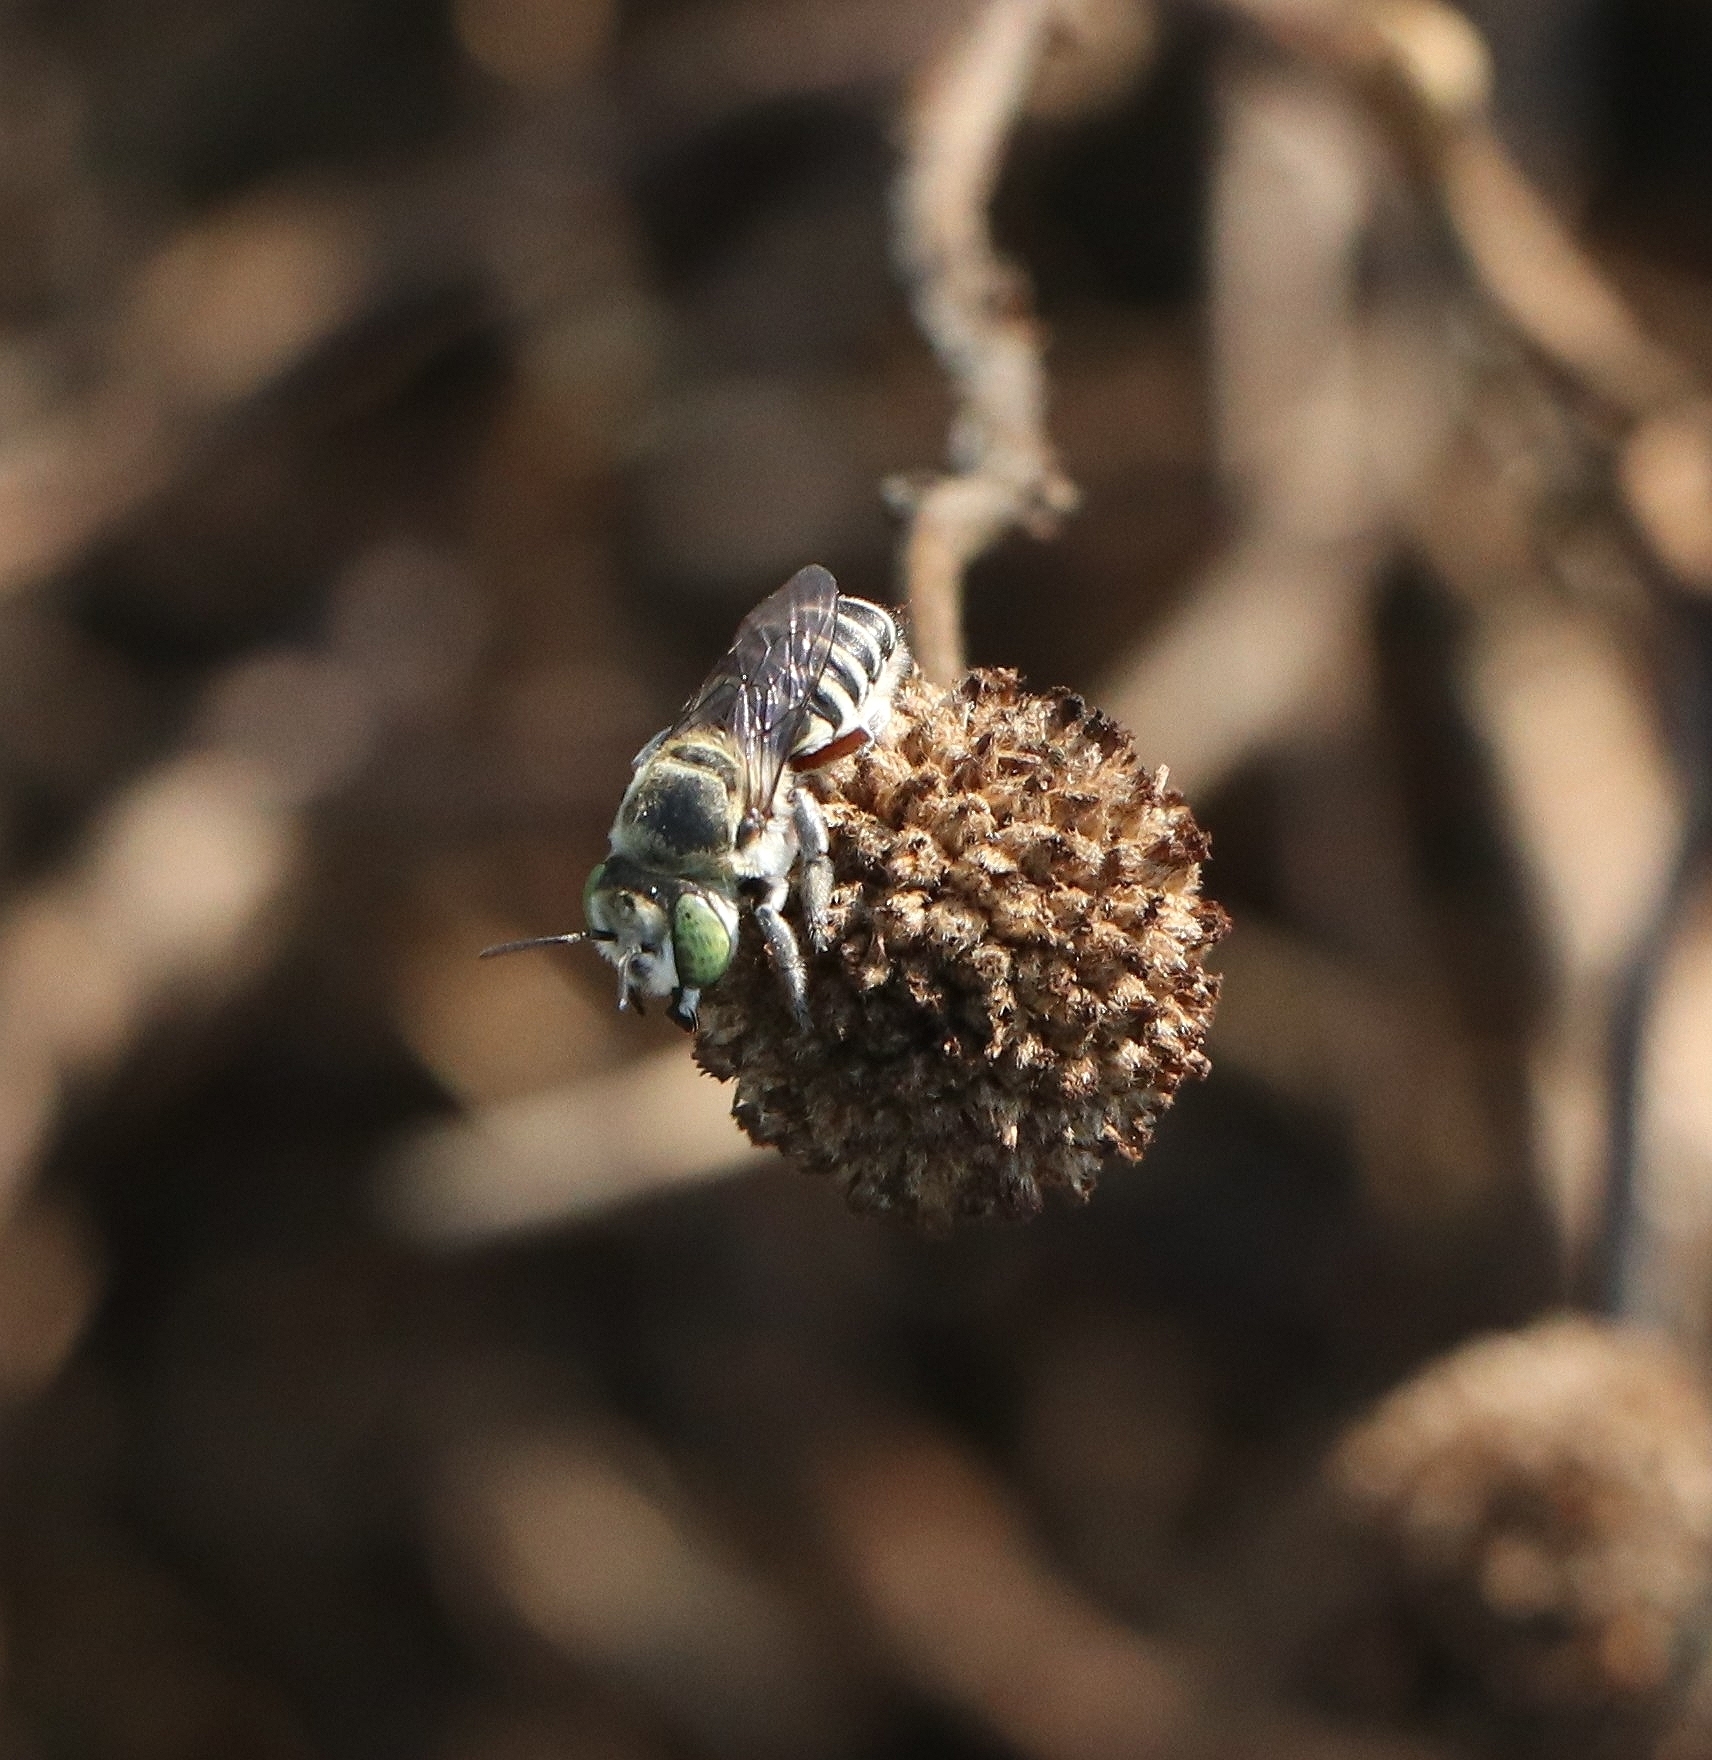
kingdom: Animalia
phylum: Arthropoda
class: Insecta
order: Hymenoptera
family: Megachilidae
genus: Megachile
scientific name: Megachile femoratella
